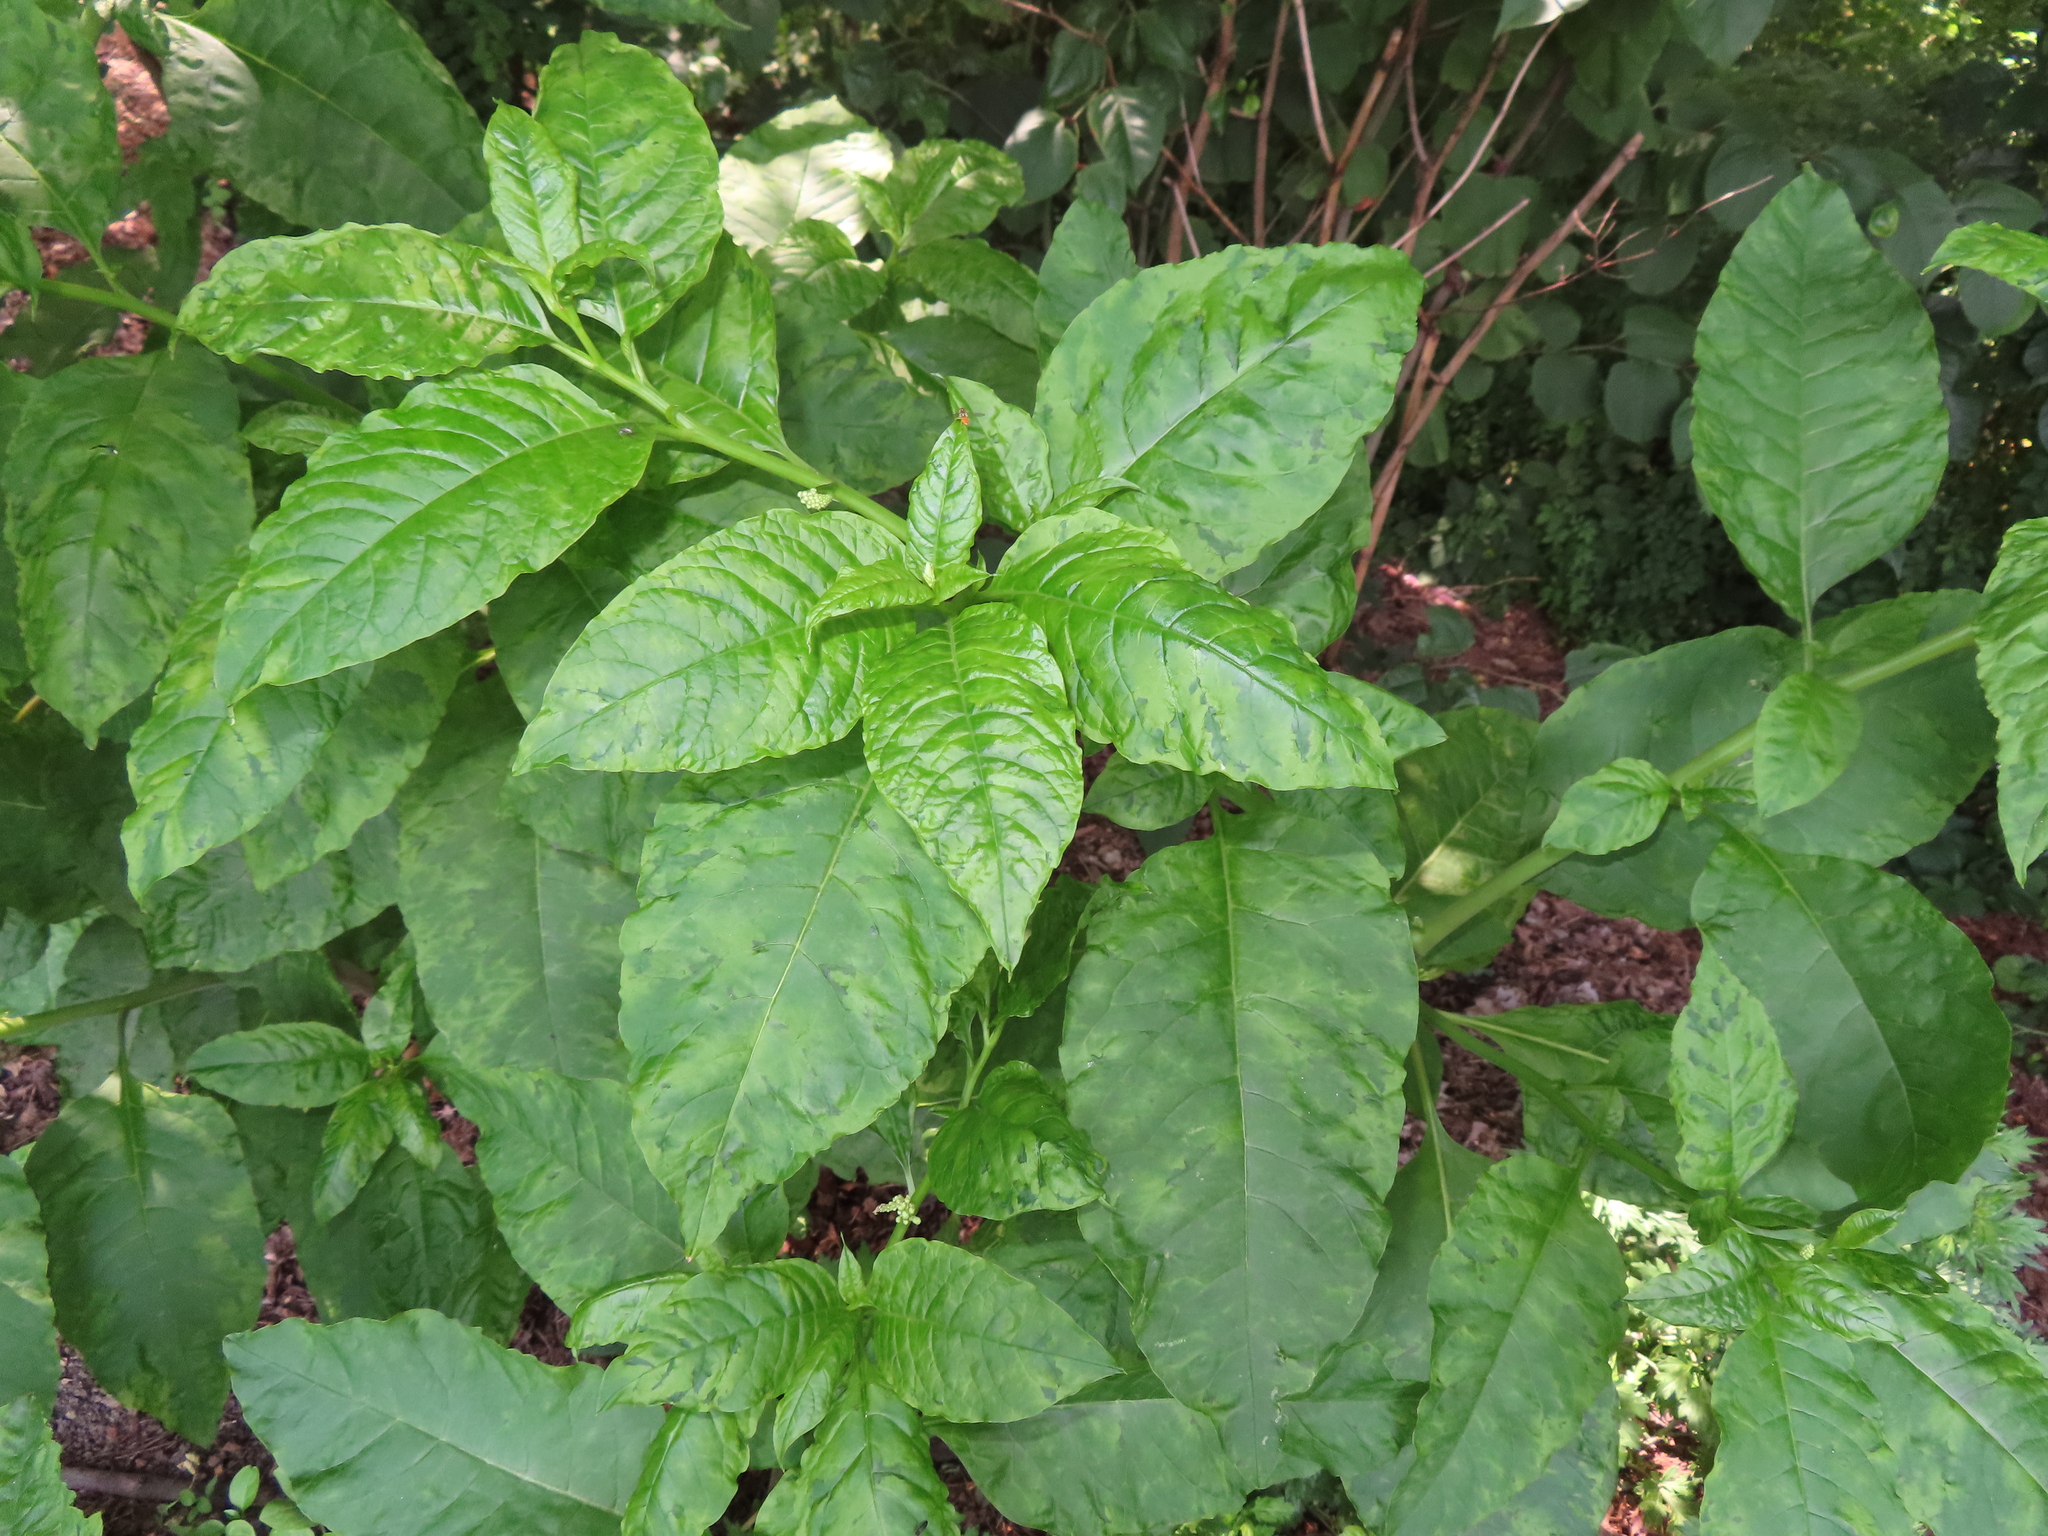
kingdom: Plantae
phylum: Tracheophyta
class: Magnoliopsida
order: Caryophyllales
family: Phytolaccaceae
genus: Phytolacca
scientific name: Phytolacca americana
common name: American pokeweed
